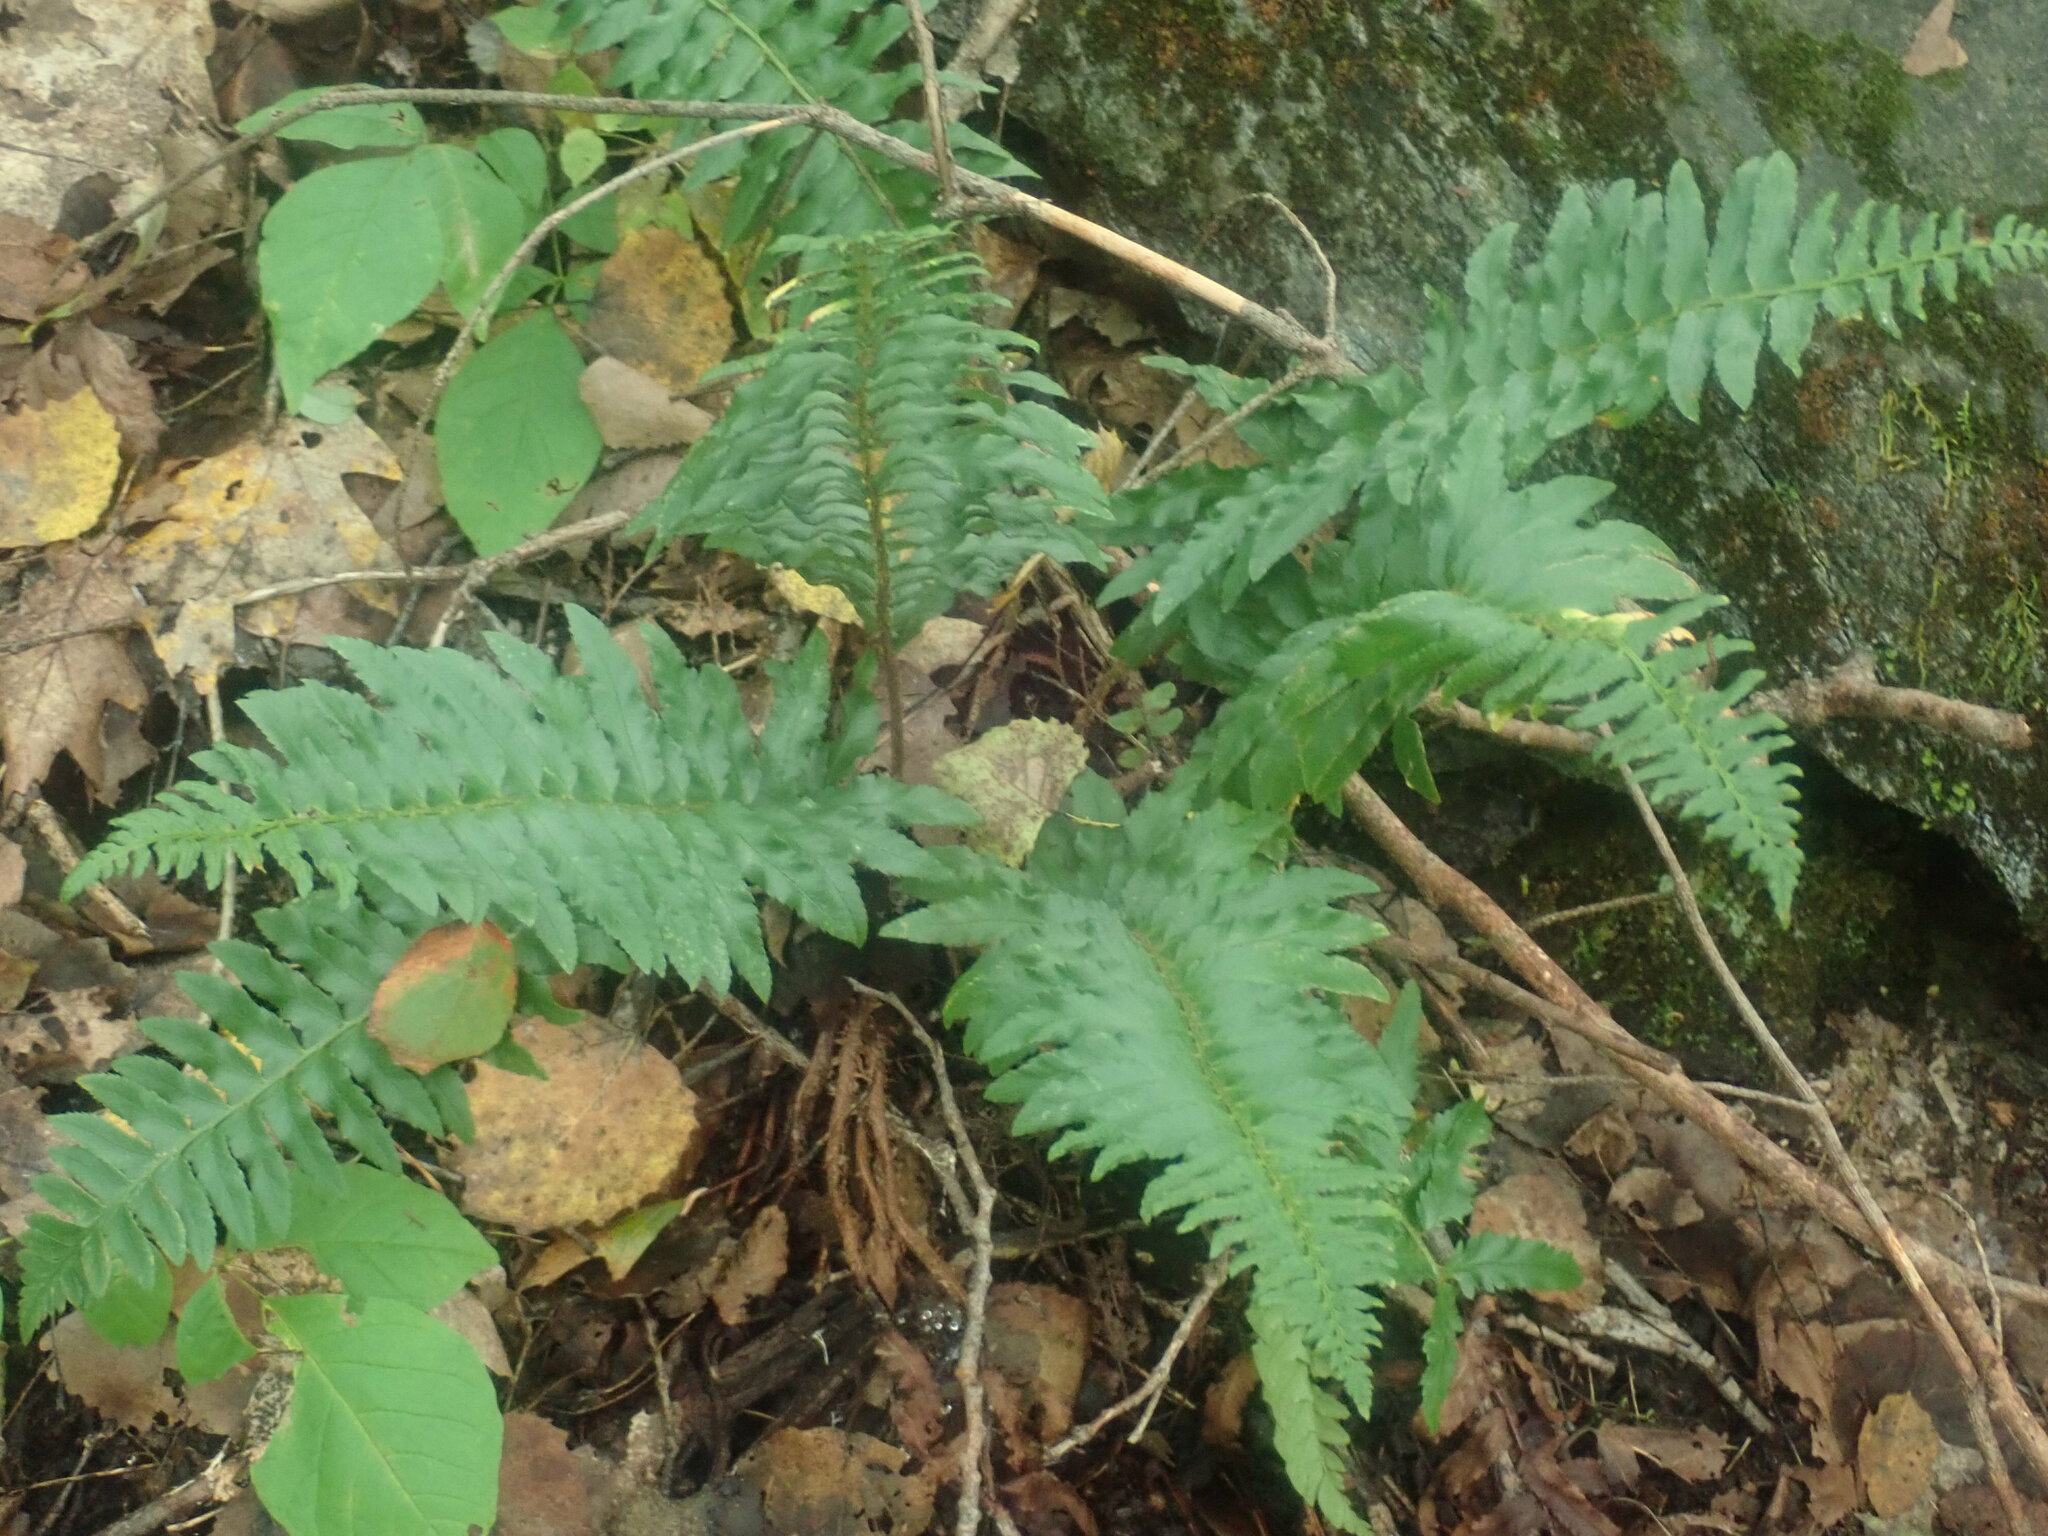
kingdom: Plantae
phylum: Tracheophyta
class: Polypodiopsida
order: Polypodiales
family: Dryopteridaceae
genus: Polystichum
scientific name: Polystichum acrostichoides
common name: Christmas fern
